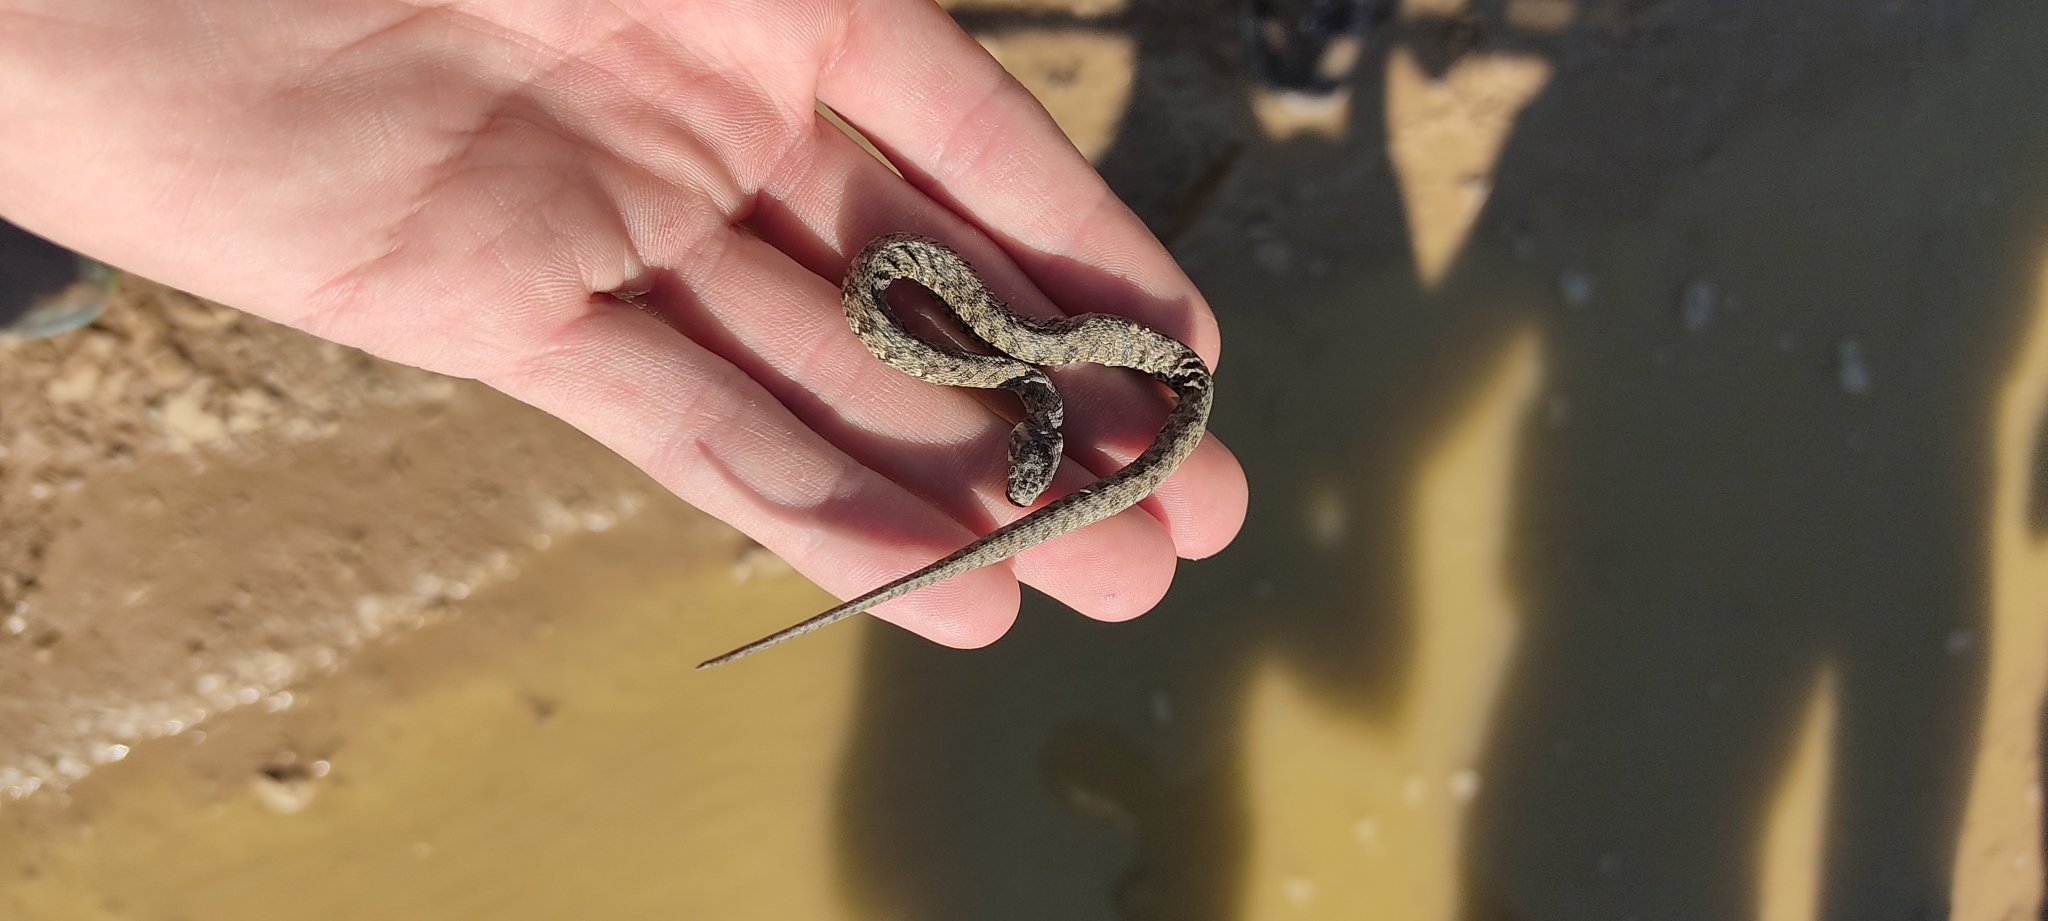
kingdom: Animalia
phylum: Chordata
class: Squamata
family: Colubridae
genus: Natrix
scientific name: Natrix maura
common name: Viperine water snake
